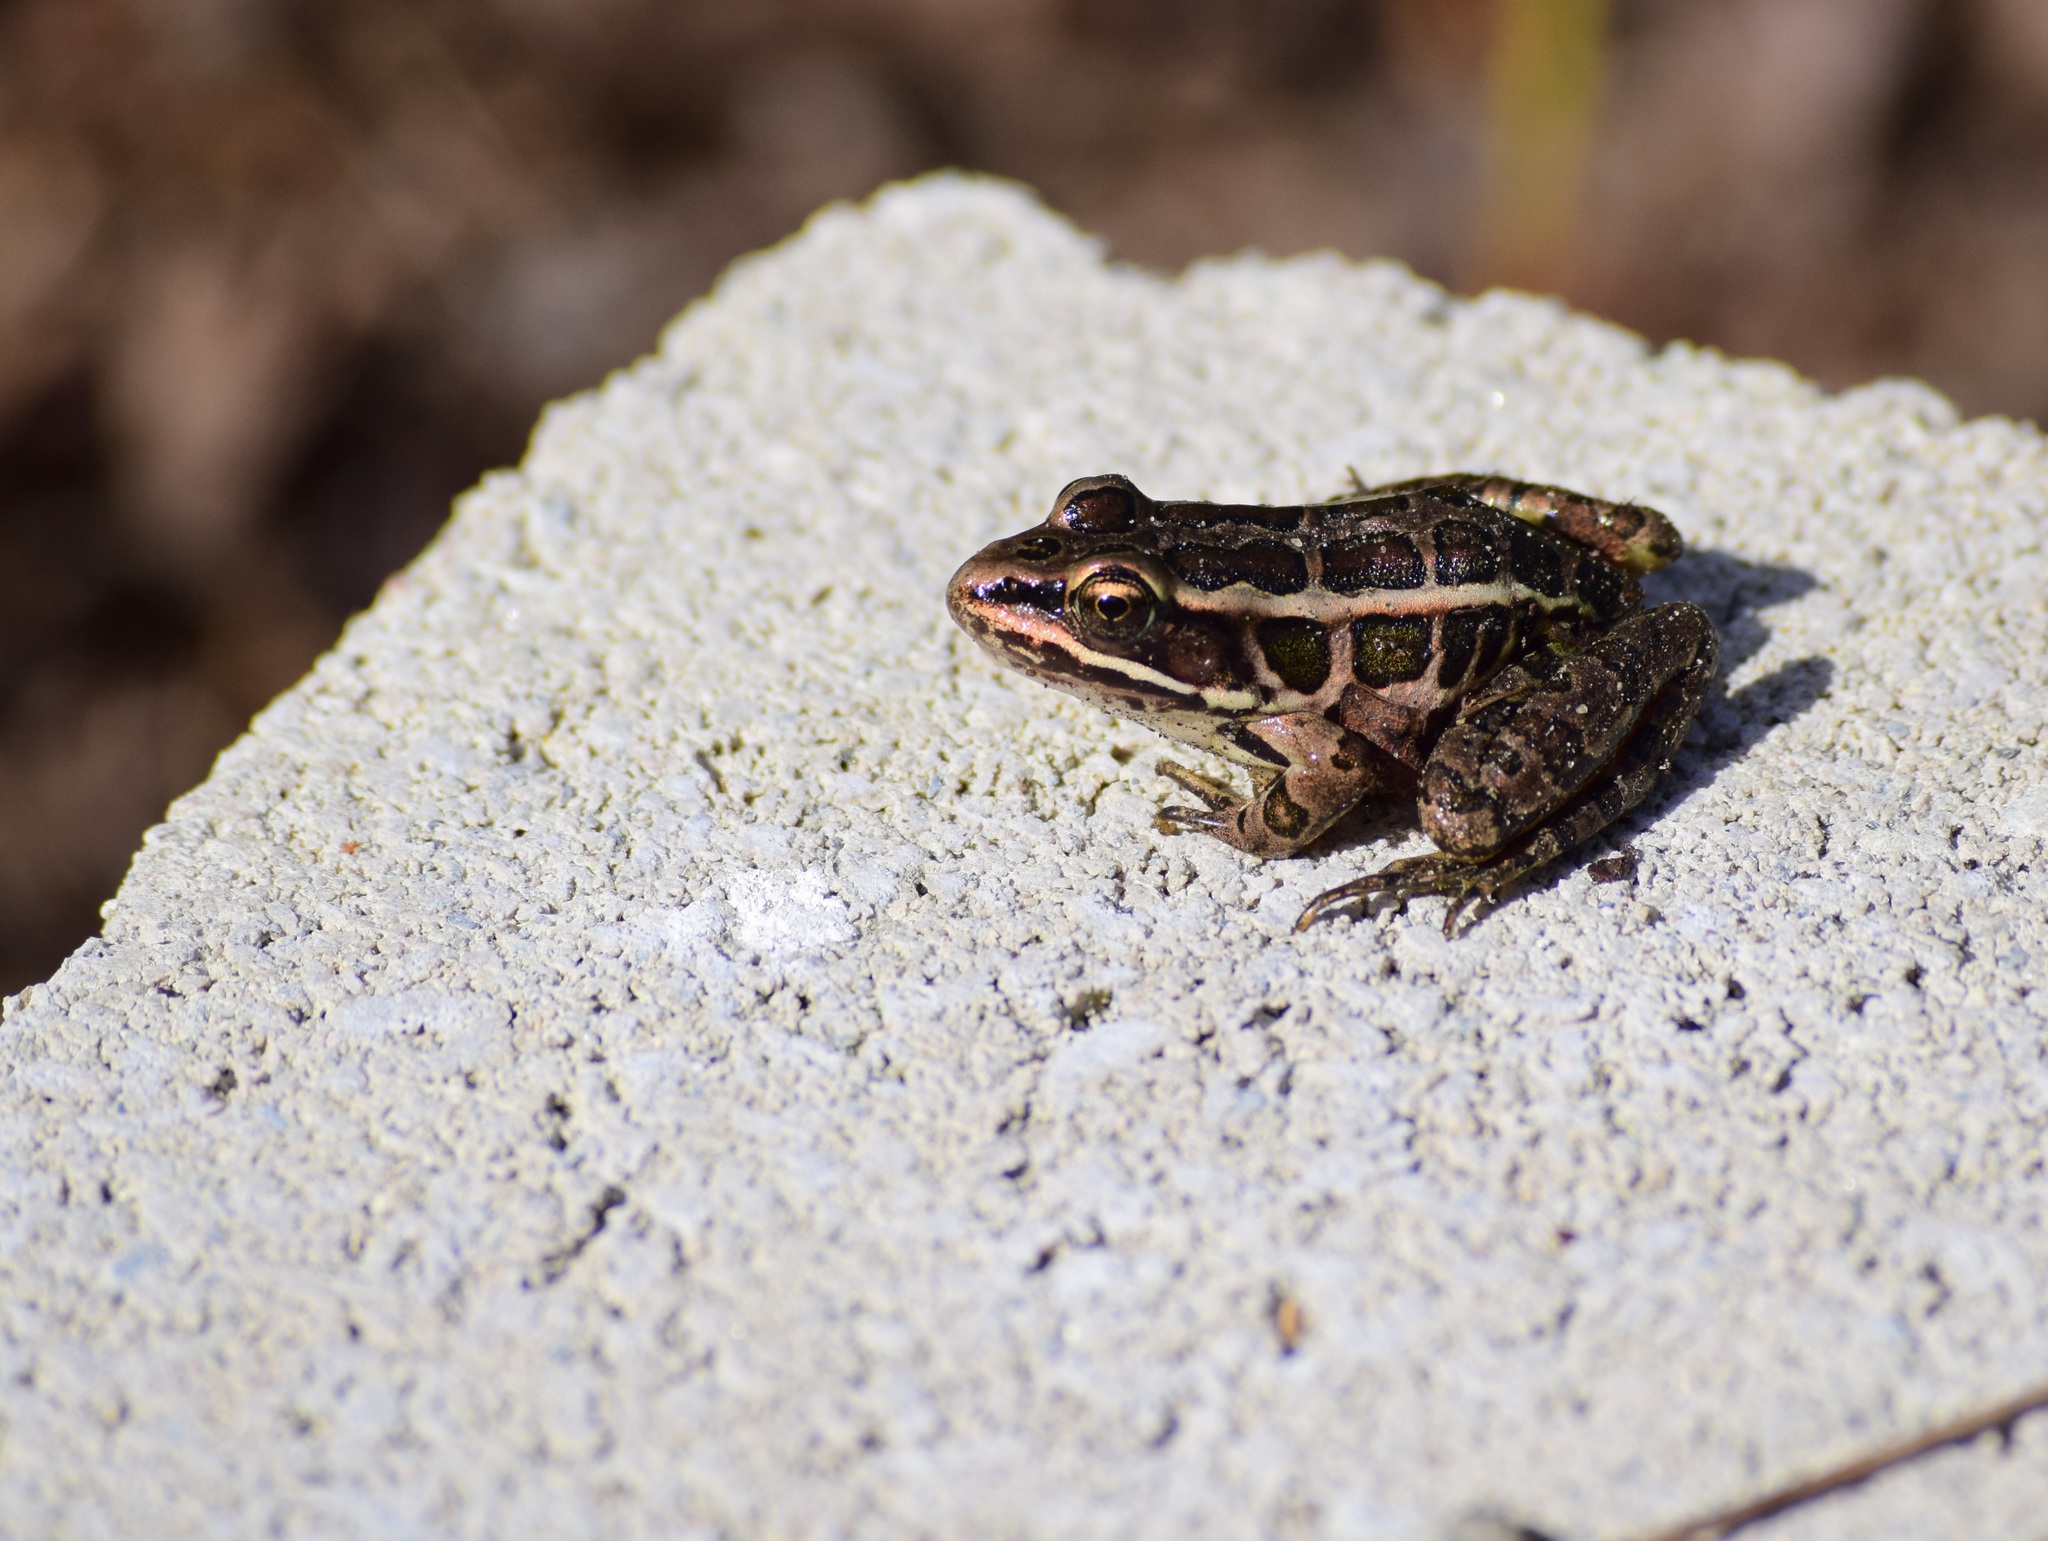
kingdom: Animalia
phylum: Chordata
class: Amphibia
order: Anura
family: Ranidae
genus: Lithobates
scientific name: Lithobates palustris
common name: Pickerel frog
